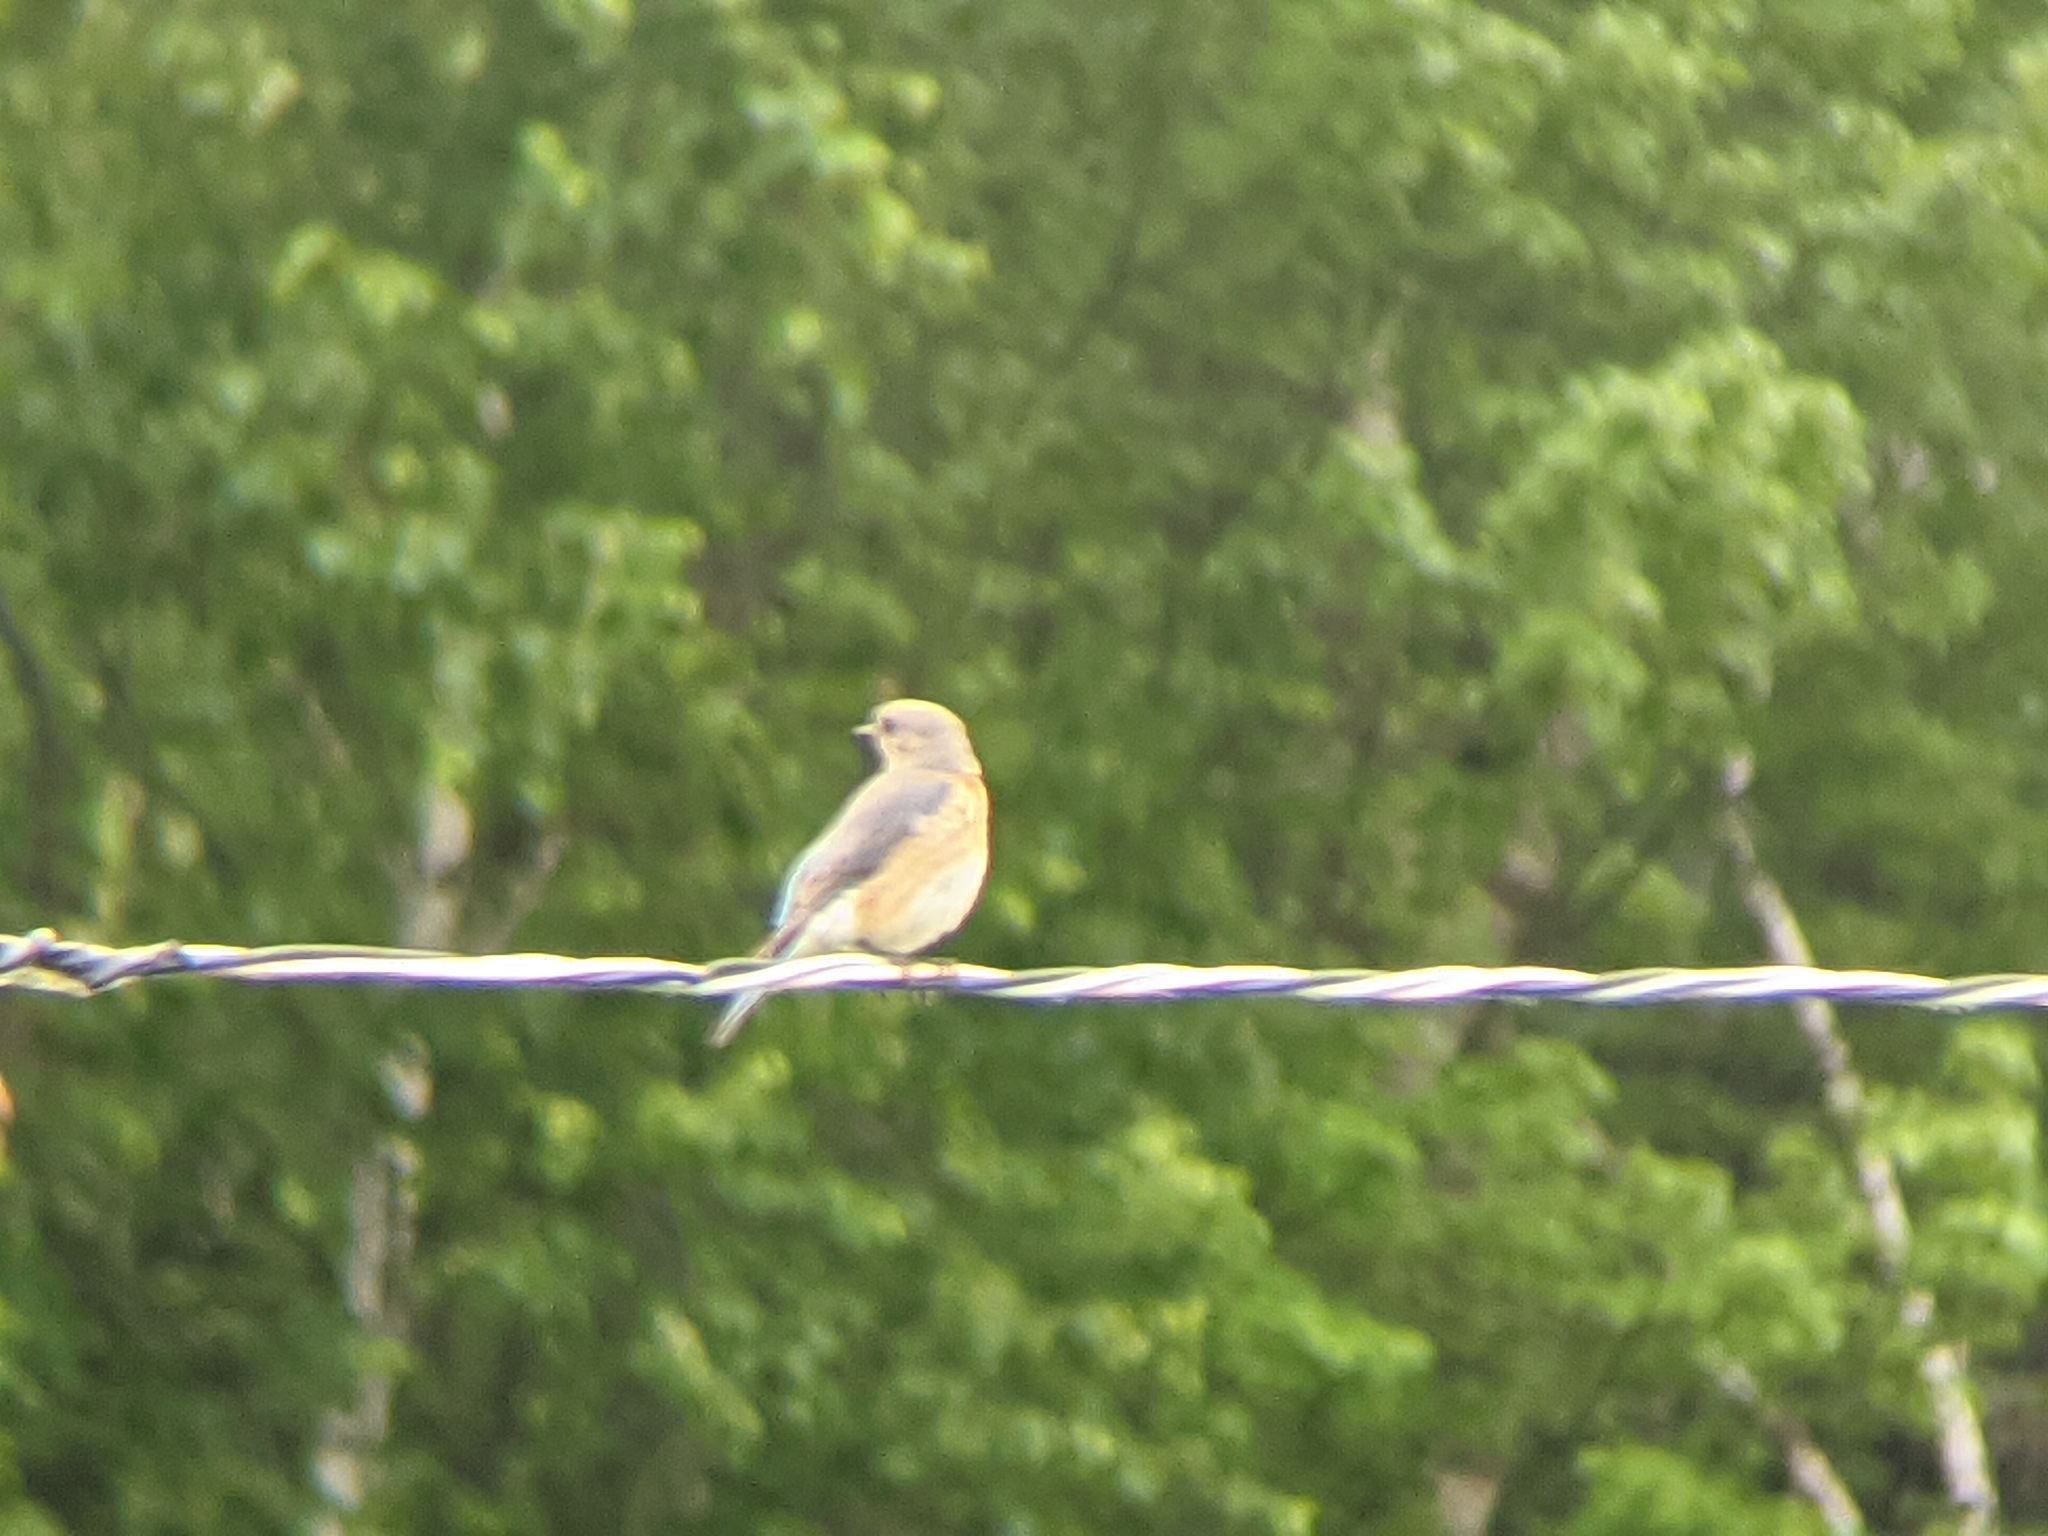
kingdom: Animalia
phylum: Chordata
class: Aves
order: Passeriformes
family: Turdidae
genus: Sialia
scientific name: Sialia sialis
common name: Eastern bluebird
